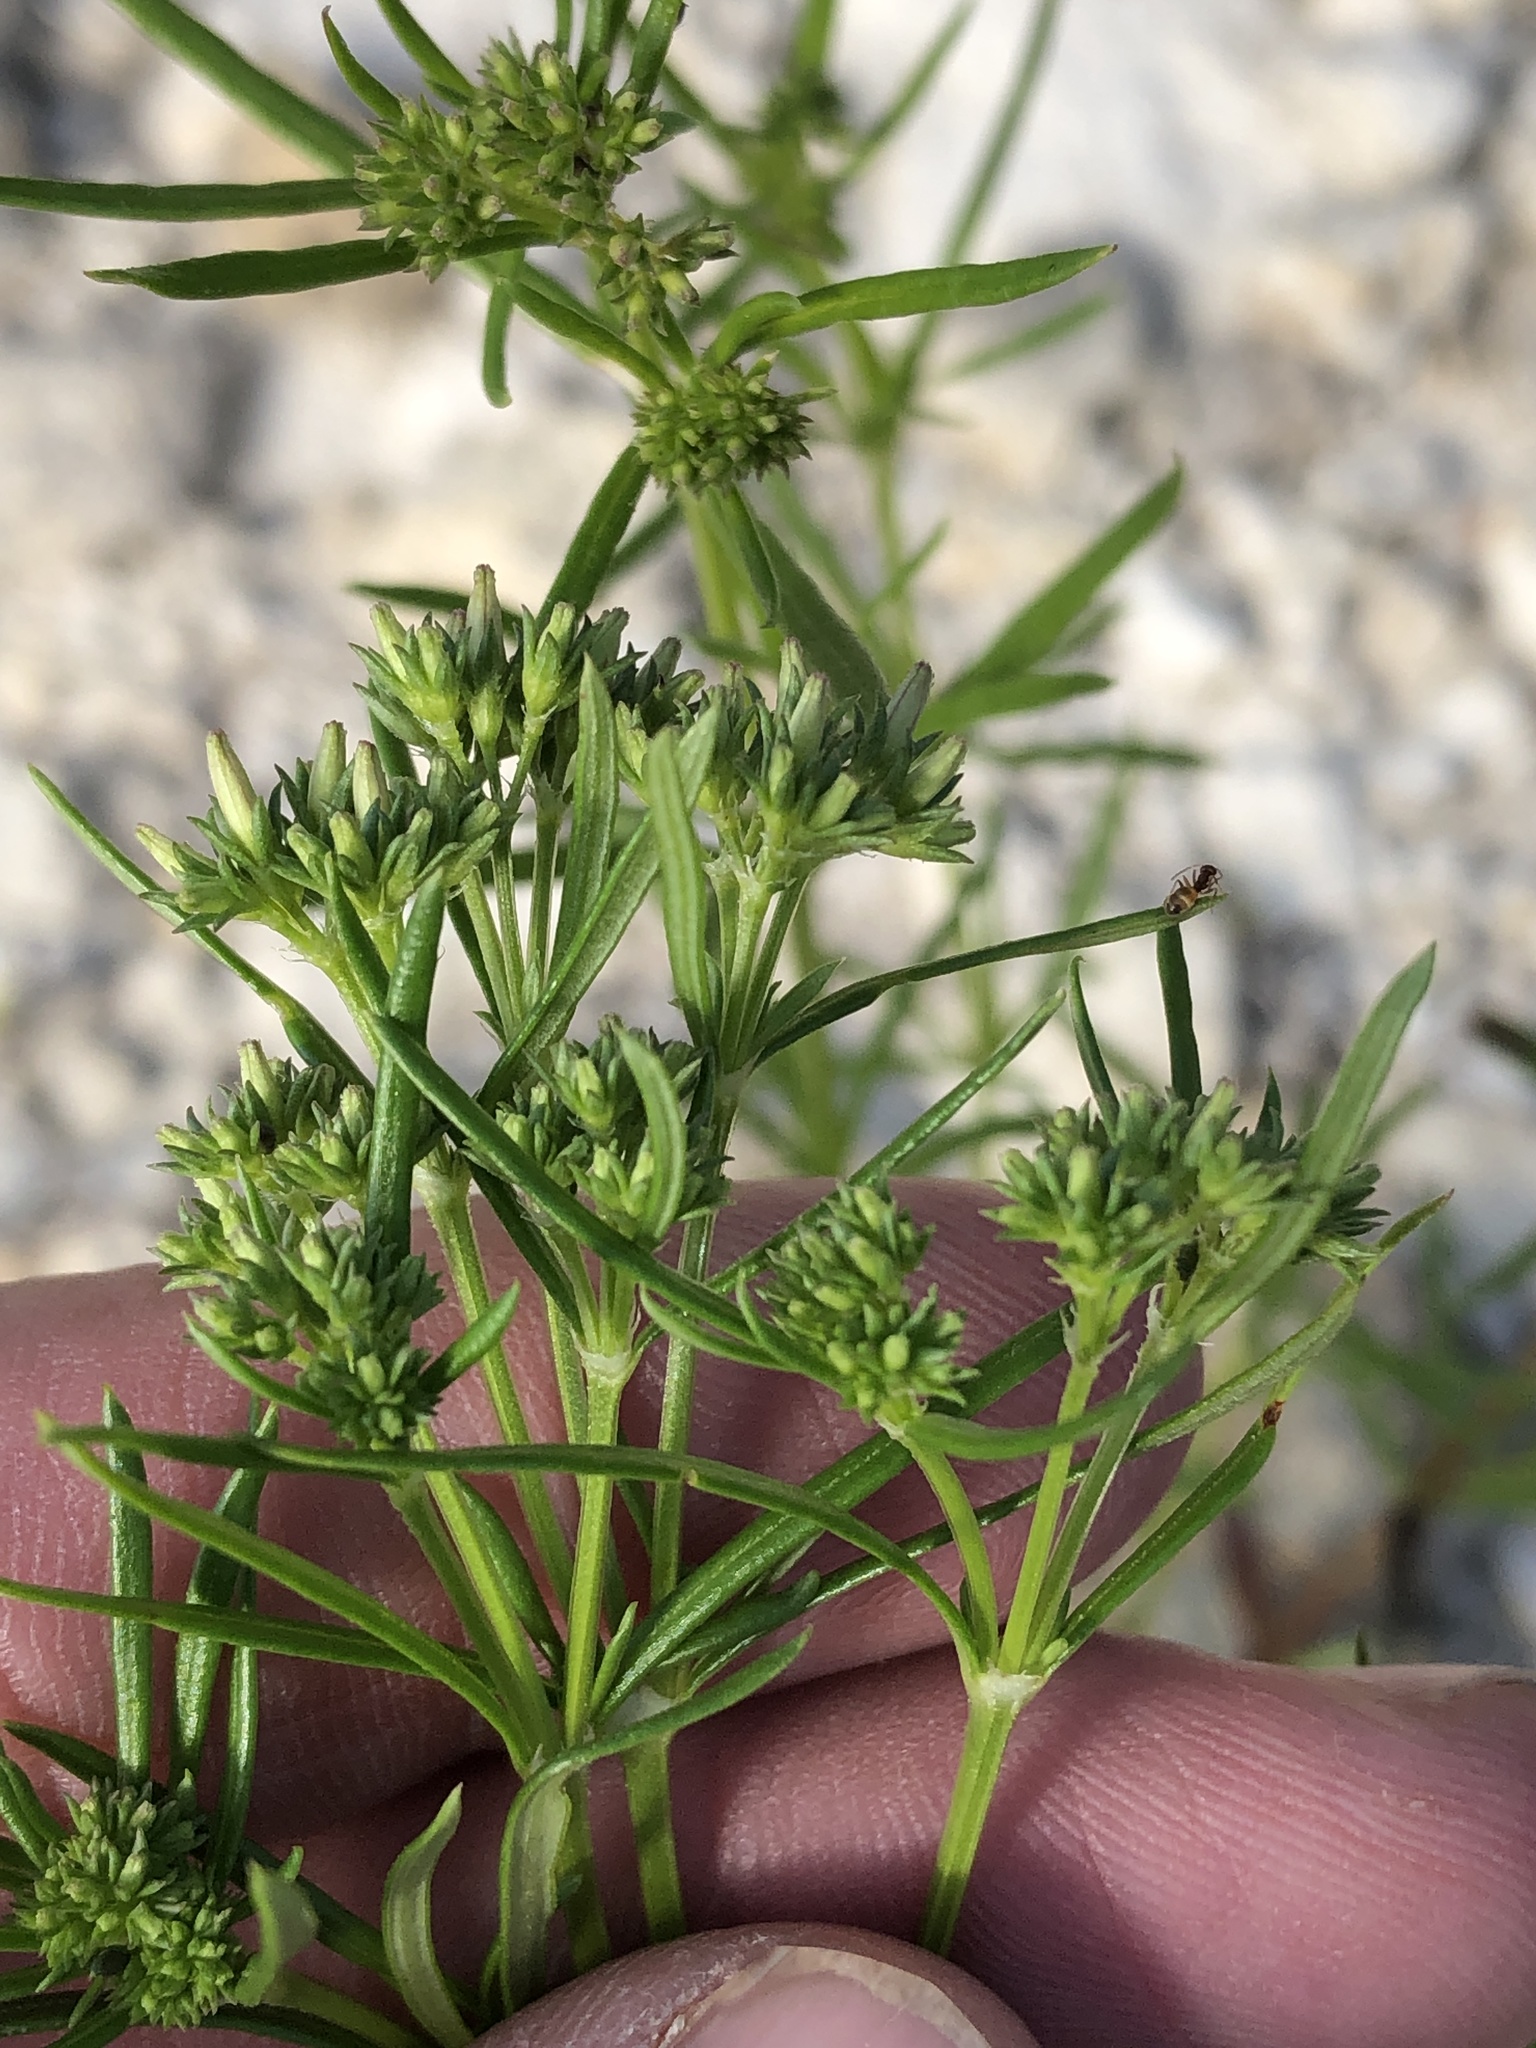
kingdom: Plantae
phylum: Tracheophyta
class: Magnoliopsida
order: Gentianales
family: Rubiaceae
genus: Stenaria
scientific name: Stenaria nigricans
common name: Diamondflowers
